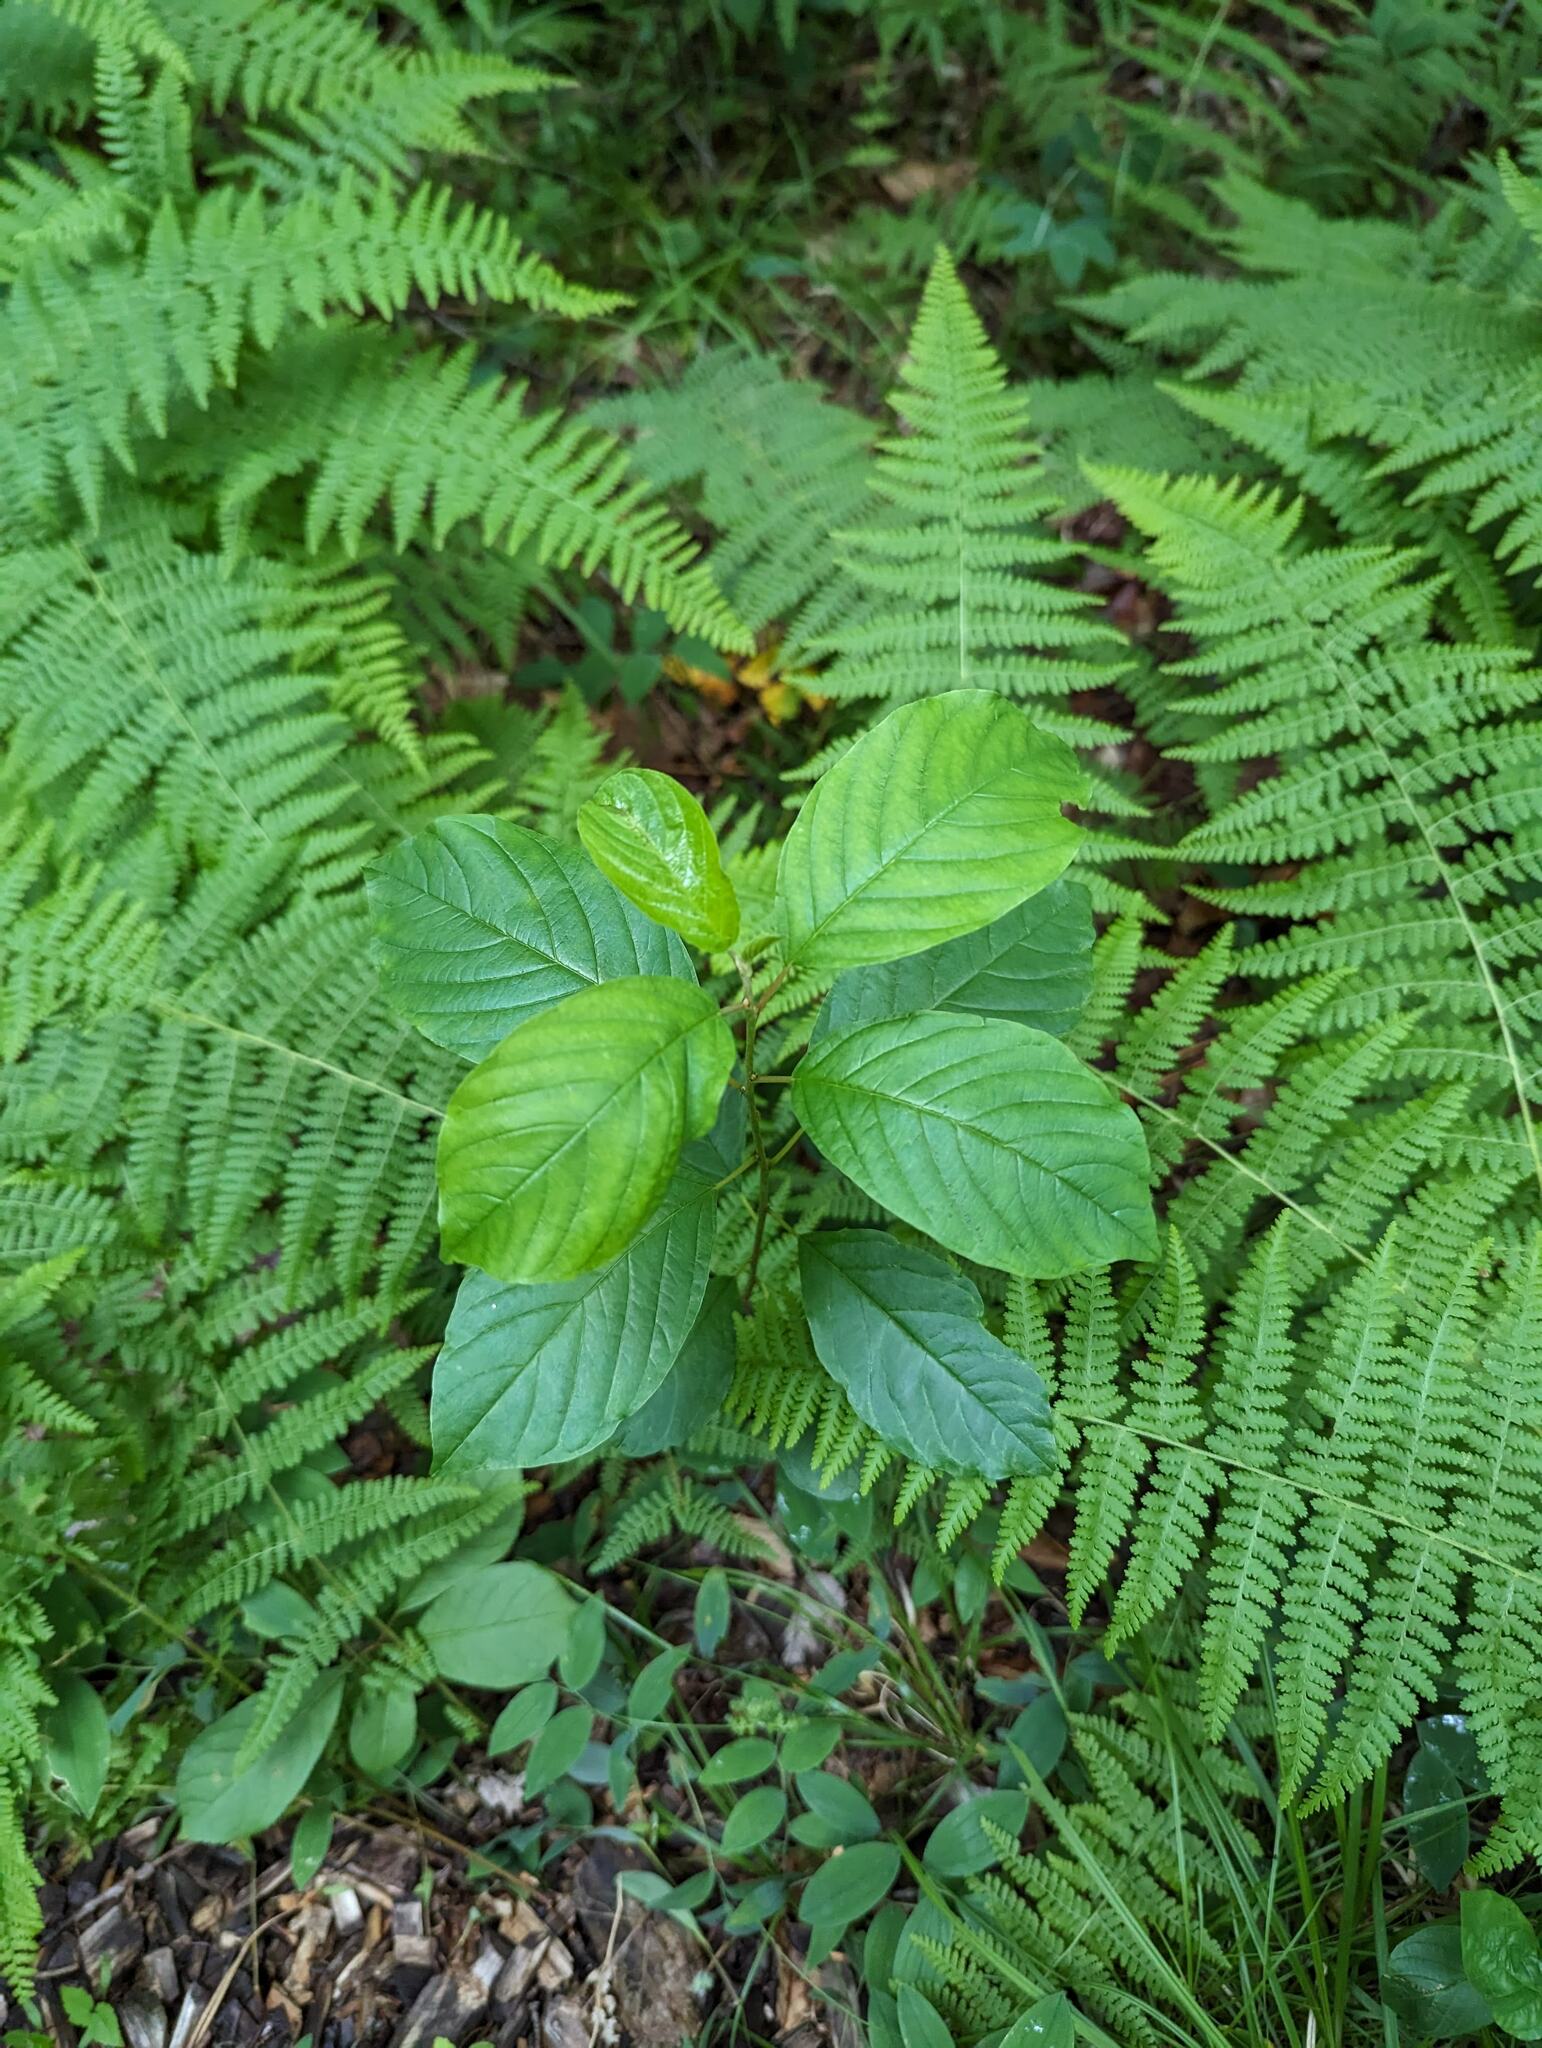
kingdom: Plantae
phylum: Tracheophyta
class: Magnoliopsida
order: Rosales
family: Rhamnaceae
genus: Frangula
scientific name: Frangula alnus
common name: Alder buckthorn
